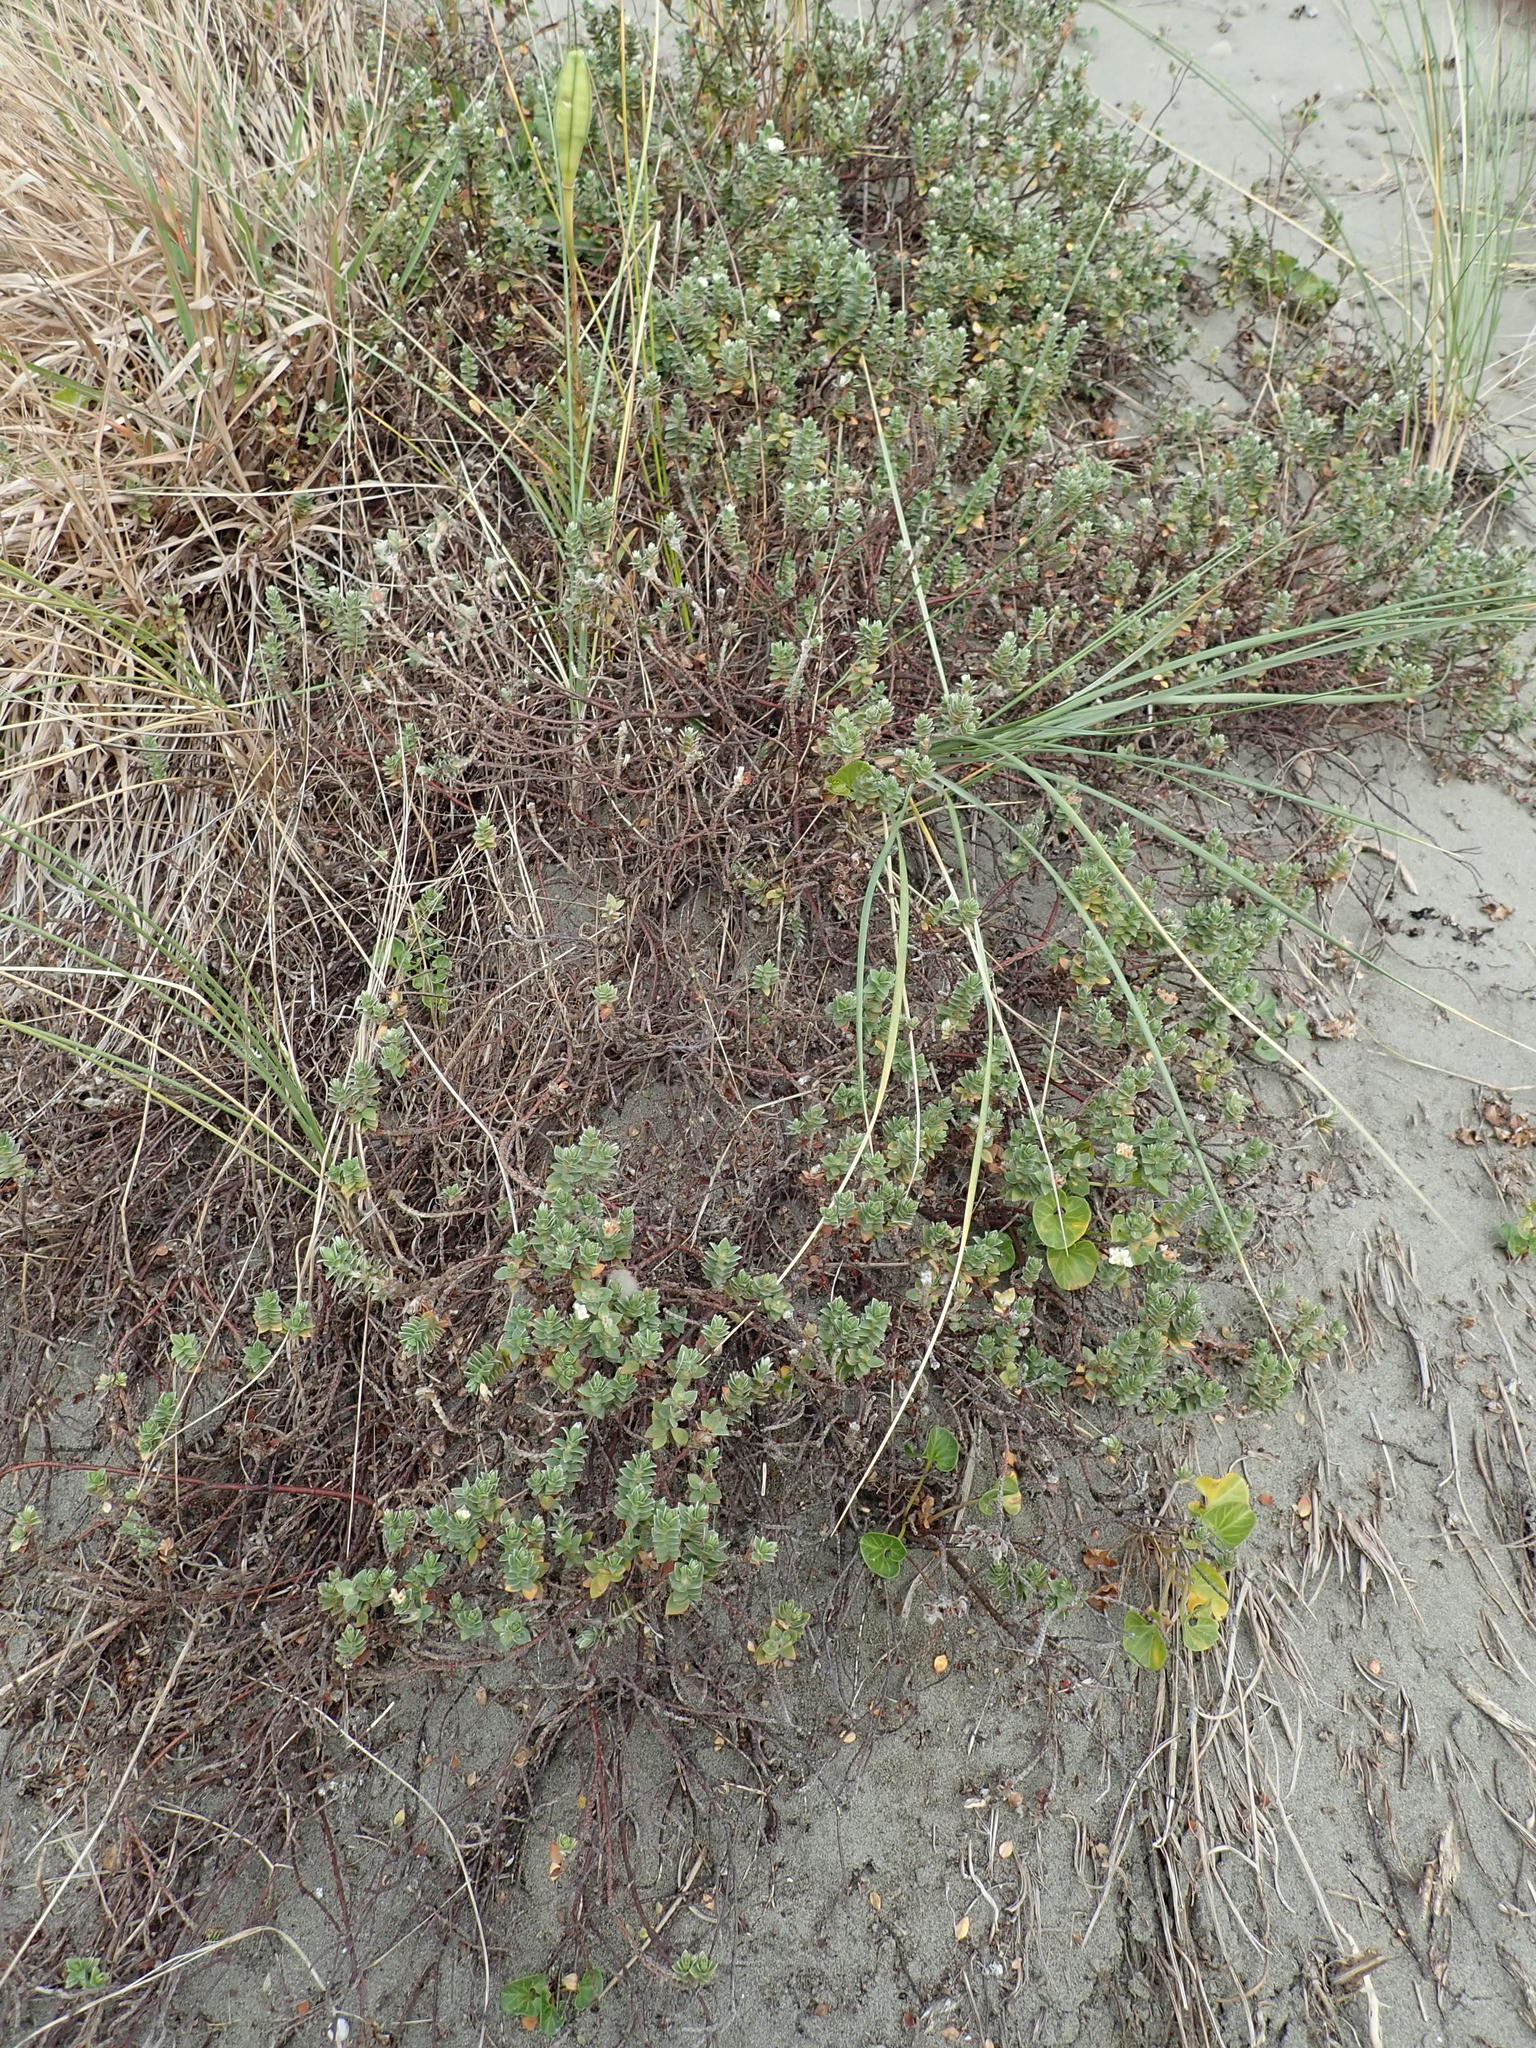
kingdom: Animalia
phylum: Arthropoda
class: Arachnida
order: Araneae
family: Theridiidae
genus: Latrodectus
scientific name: Latrodectus katipo
